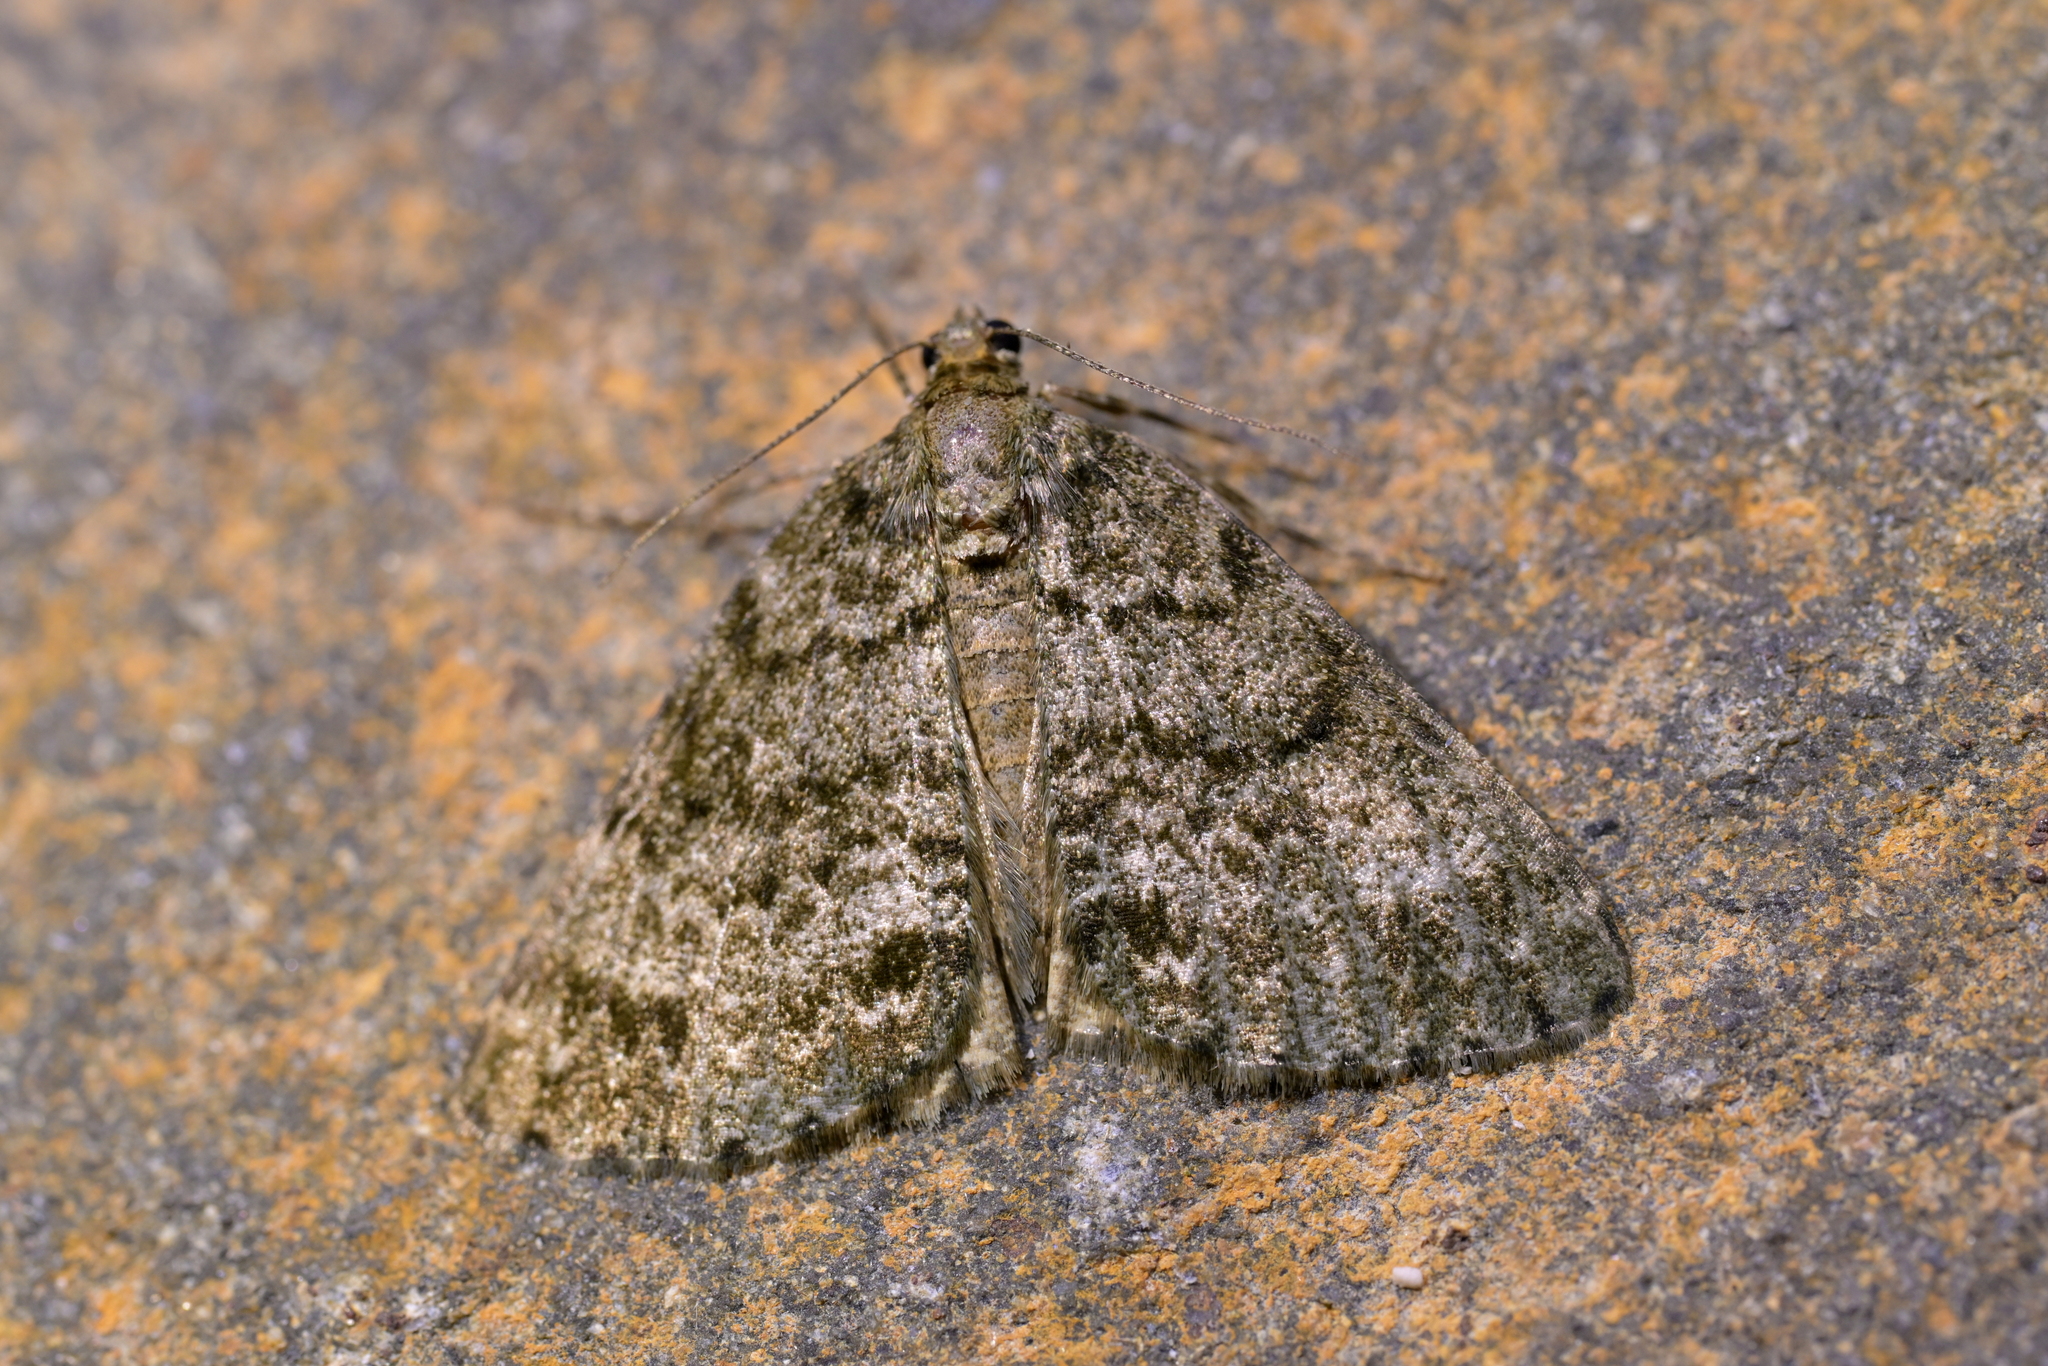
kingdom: Animalia
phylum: Arthropoda
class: Insecta
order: Lepidoptera
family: Geometridae
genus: Pseudocoremia
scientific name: Pseudocoremia indistincta
